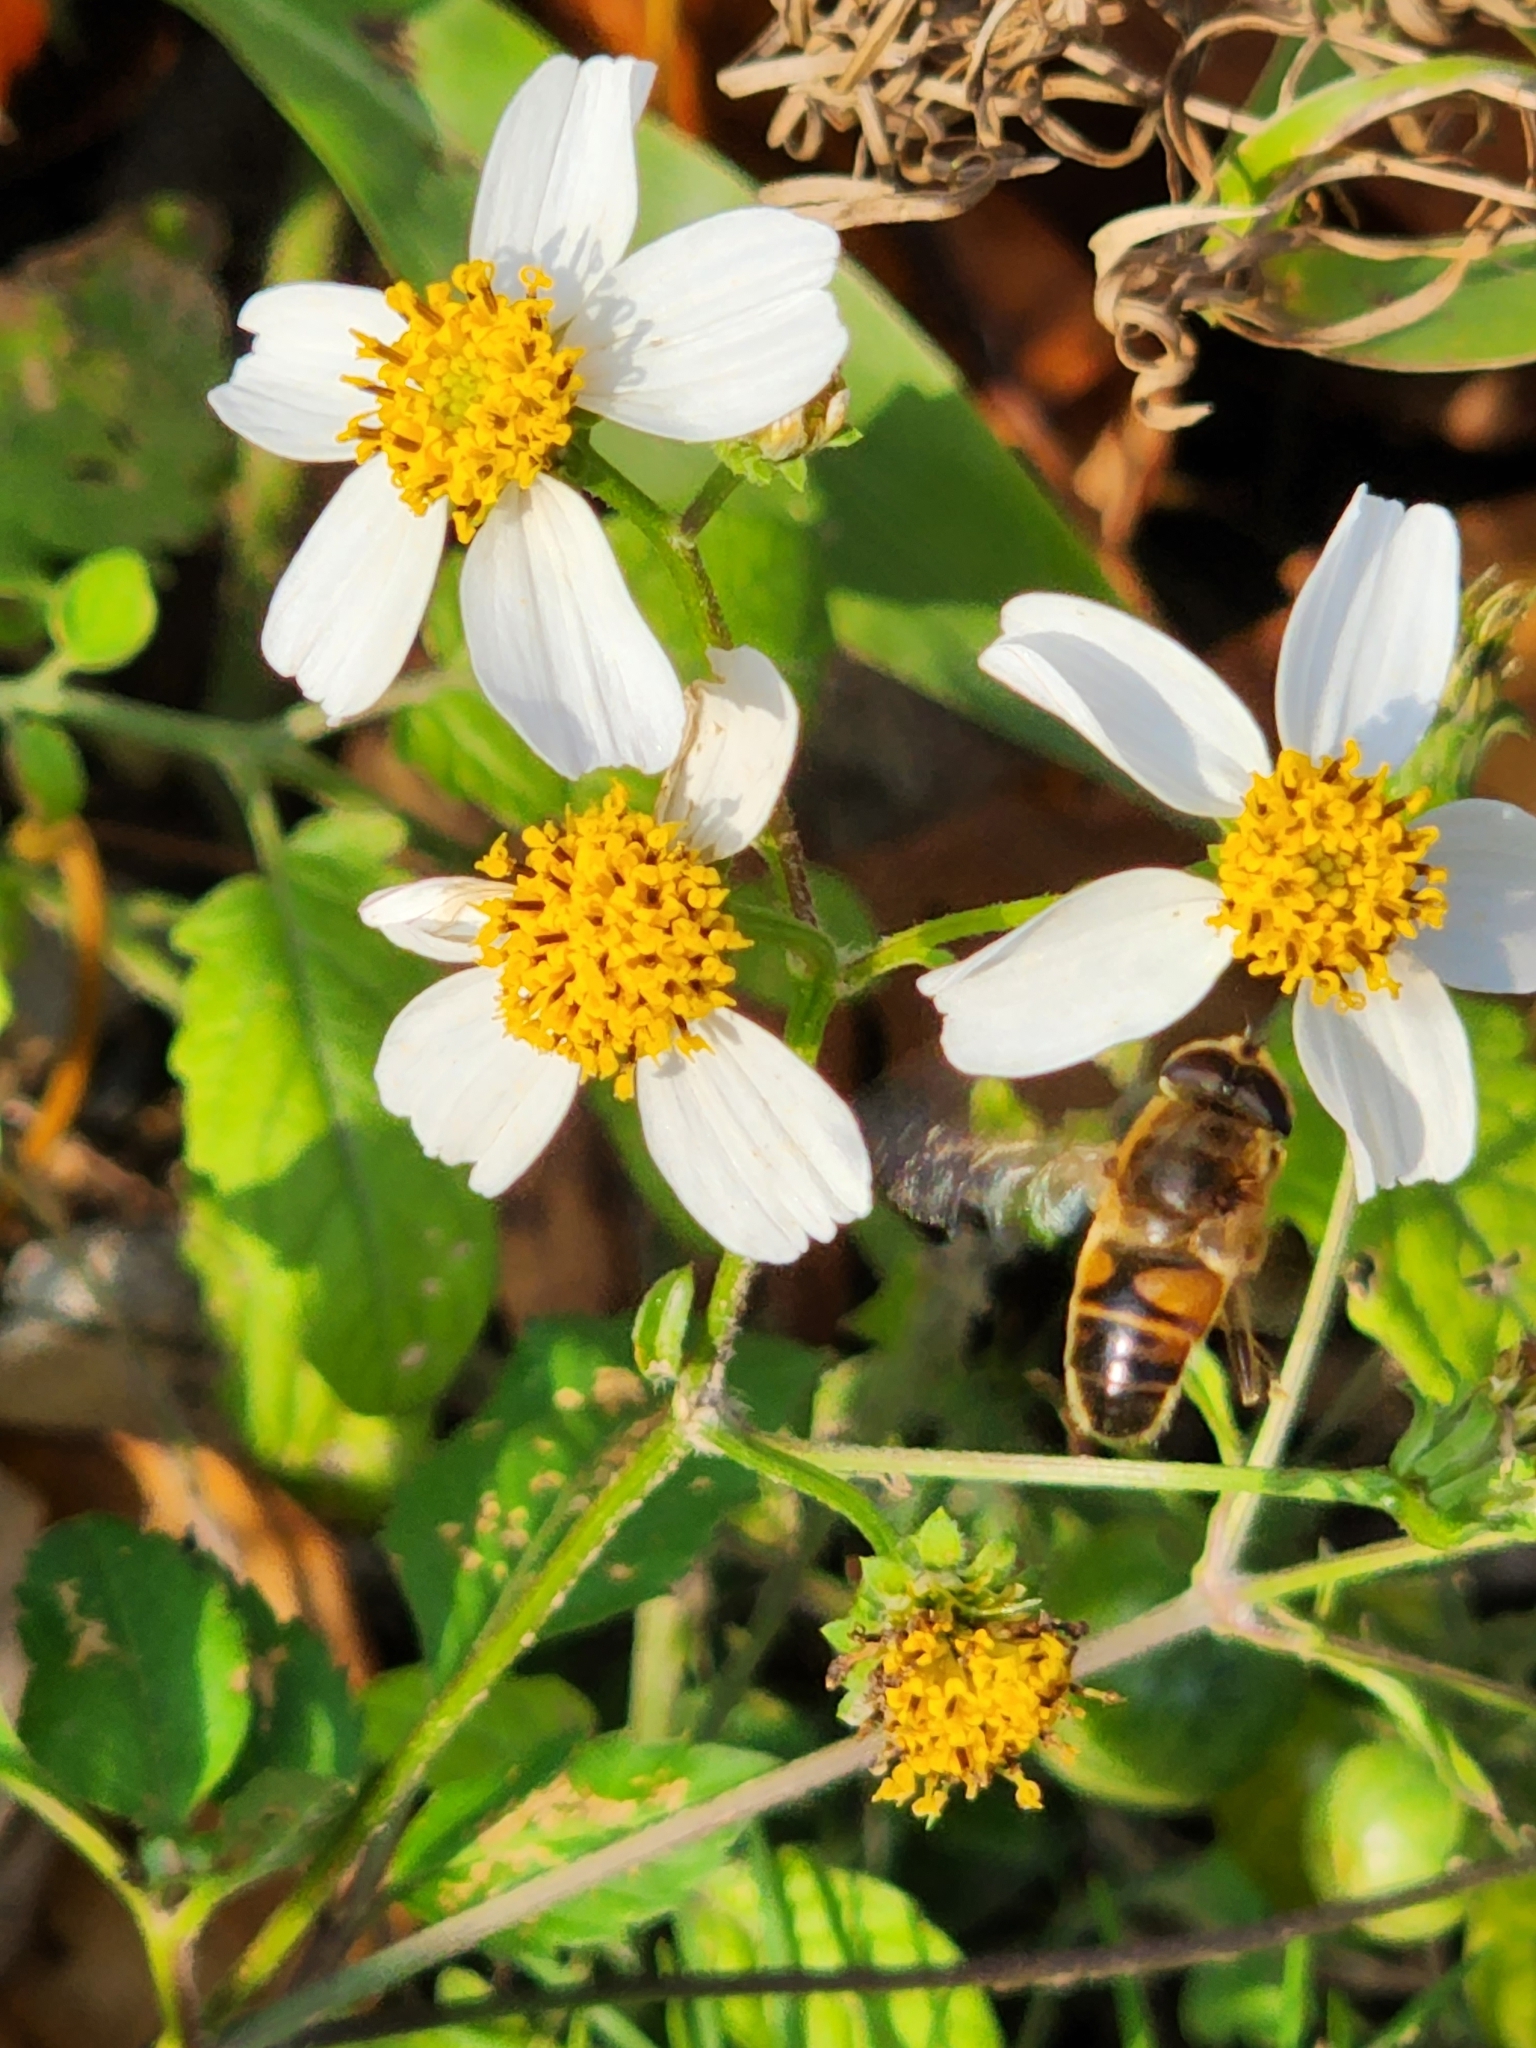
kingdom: Animalia
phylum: Arthropoda
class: Insecta
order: Diptera
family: Syrphidae
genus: Eristalis
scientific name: Eristalis tenax
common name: Drone fly
